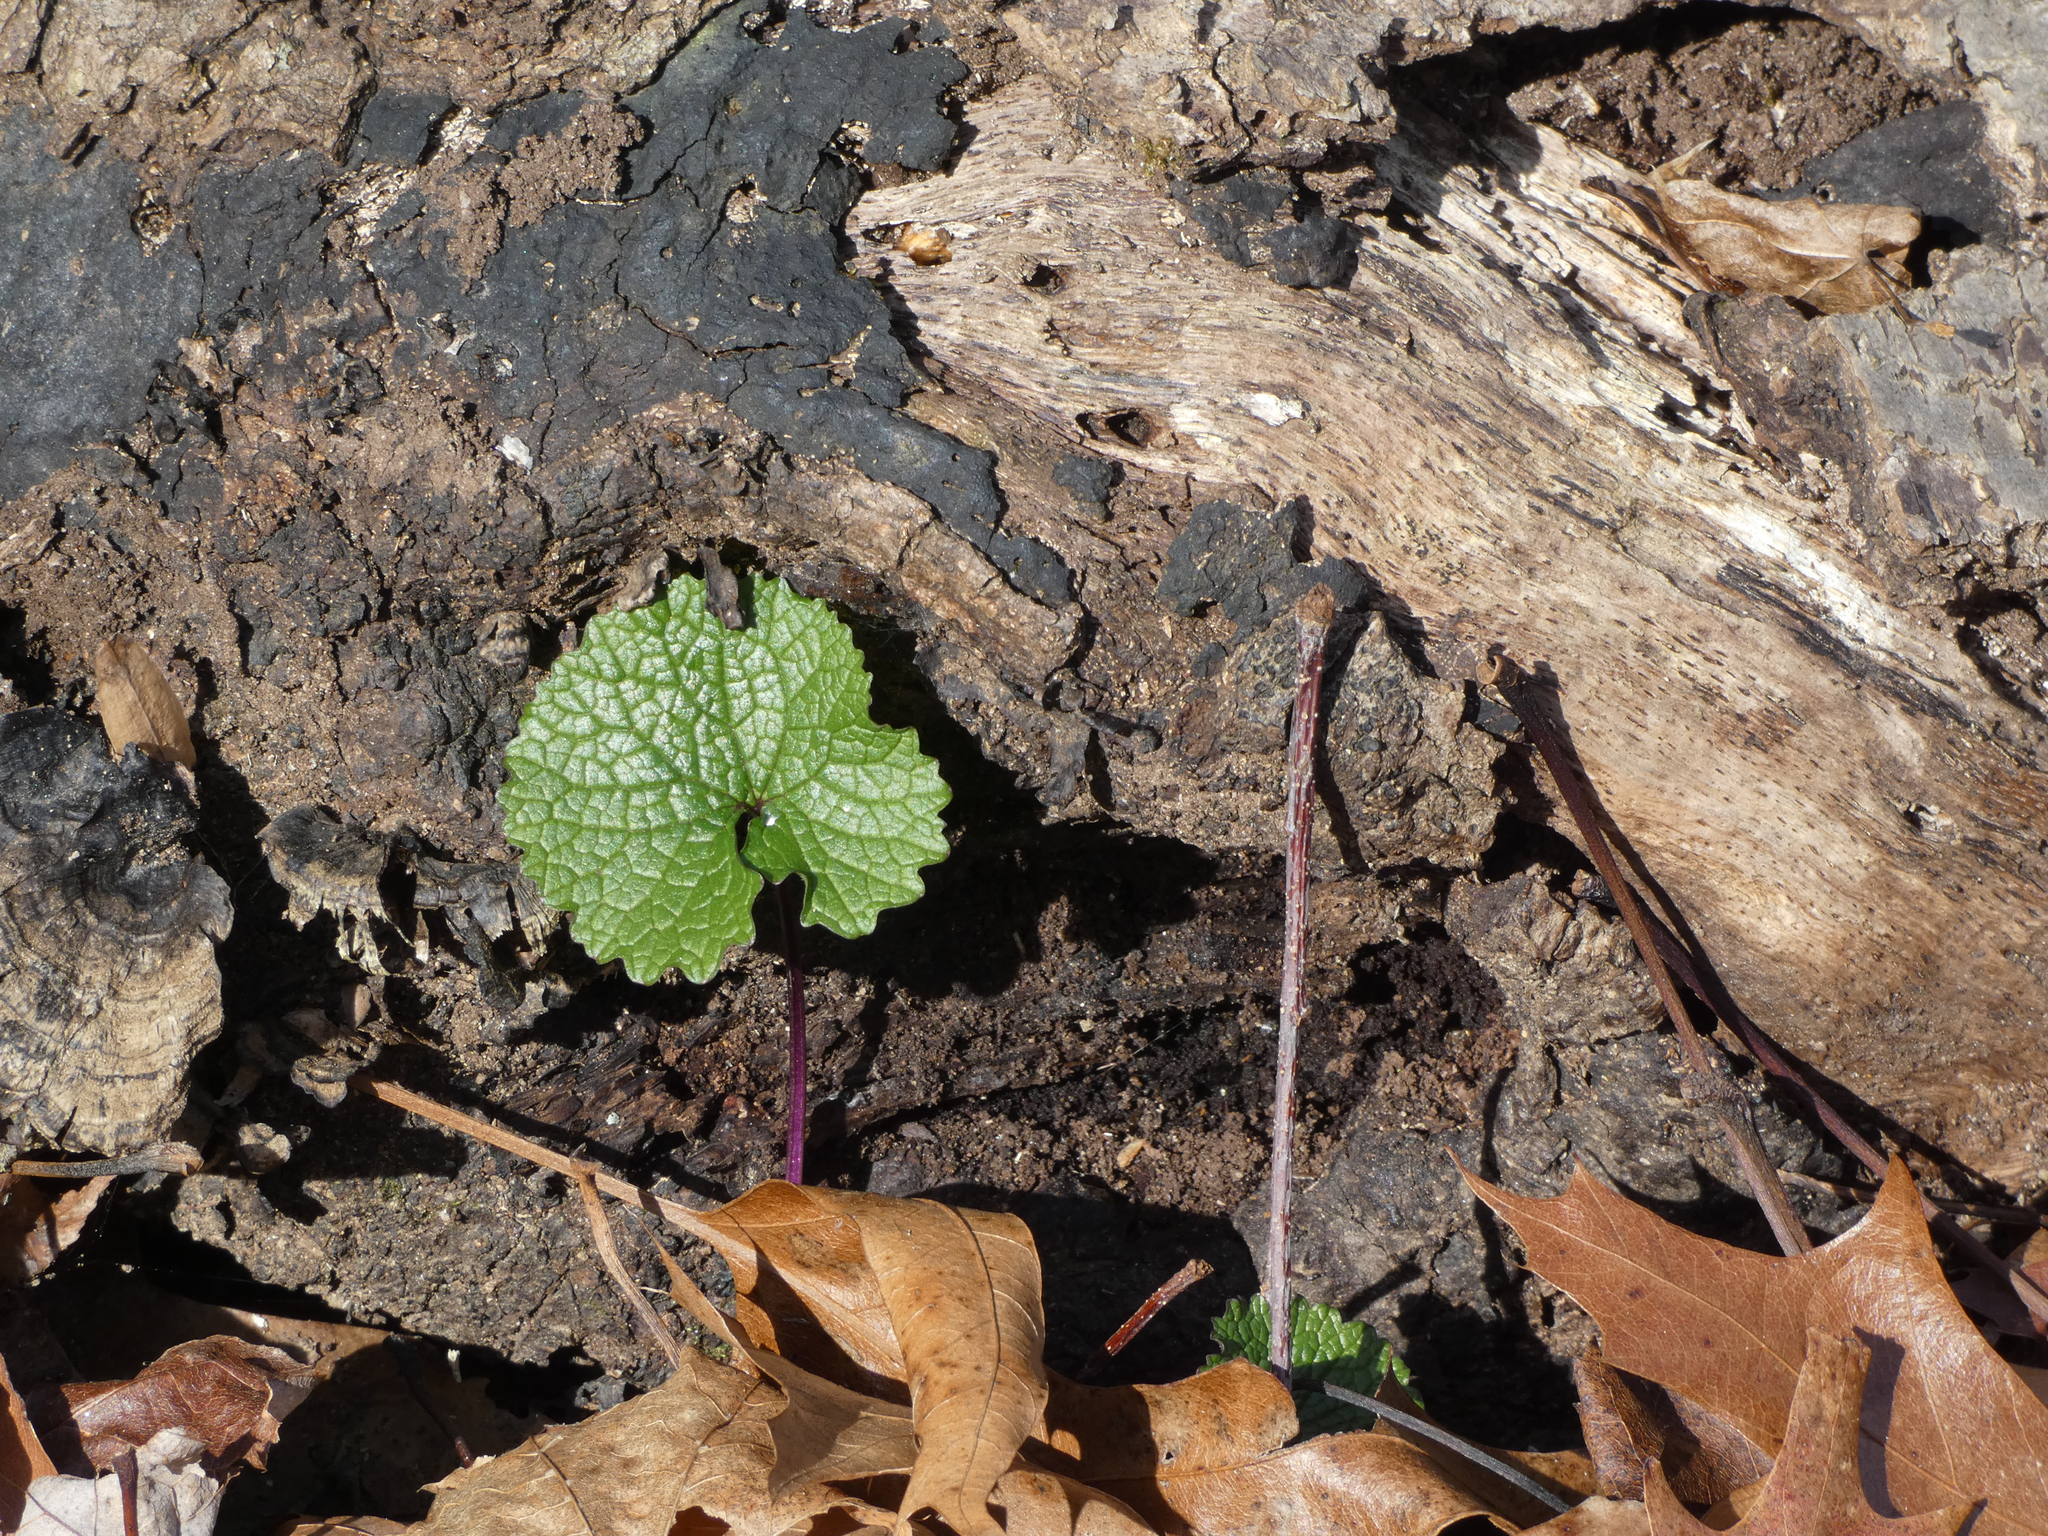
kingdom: Plantae
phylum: Tracheophyta
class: Magnoliopsida
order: Brassicales
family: Brassicaceae
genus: Alliaria
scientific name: Alliaria petiolata
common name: Garlic mustard
